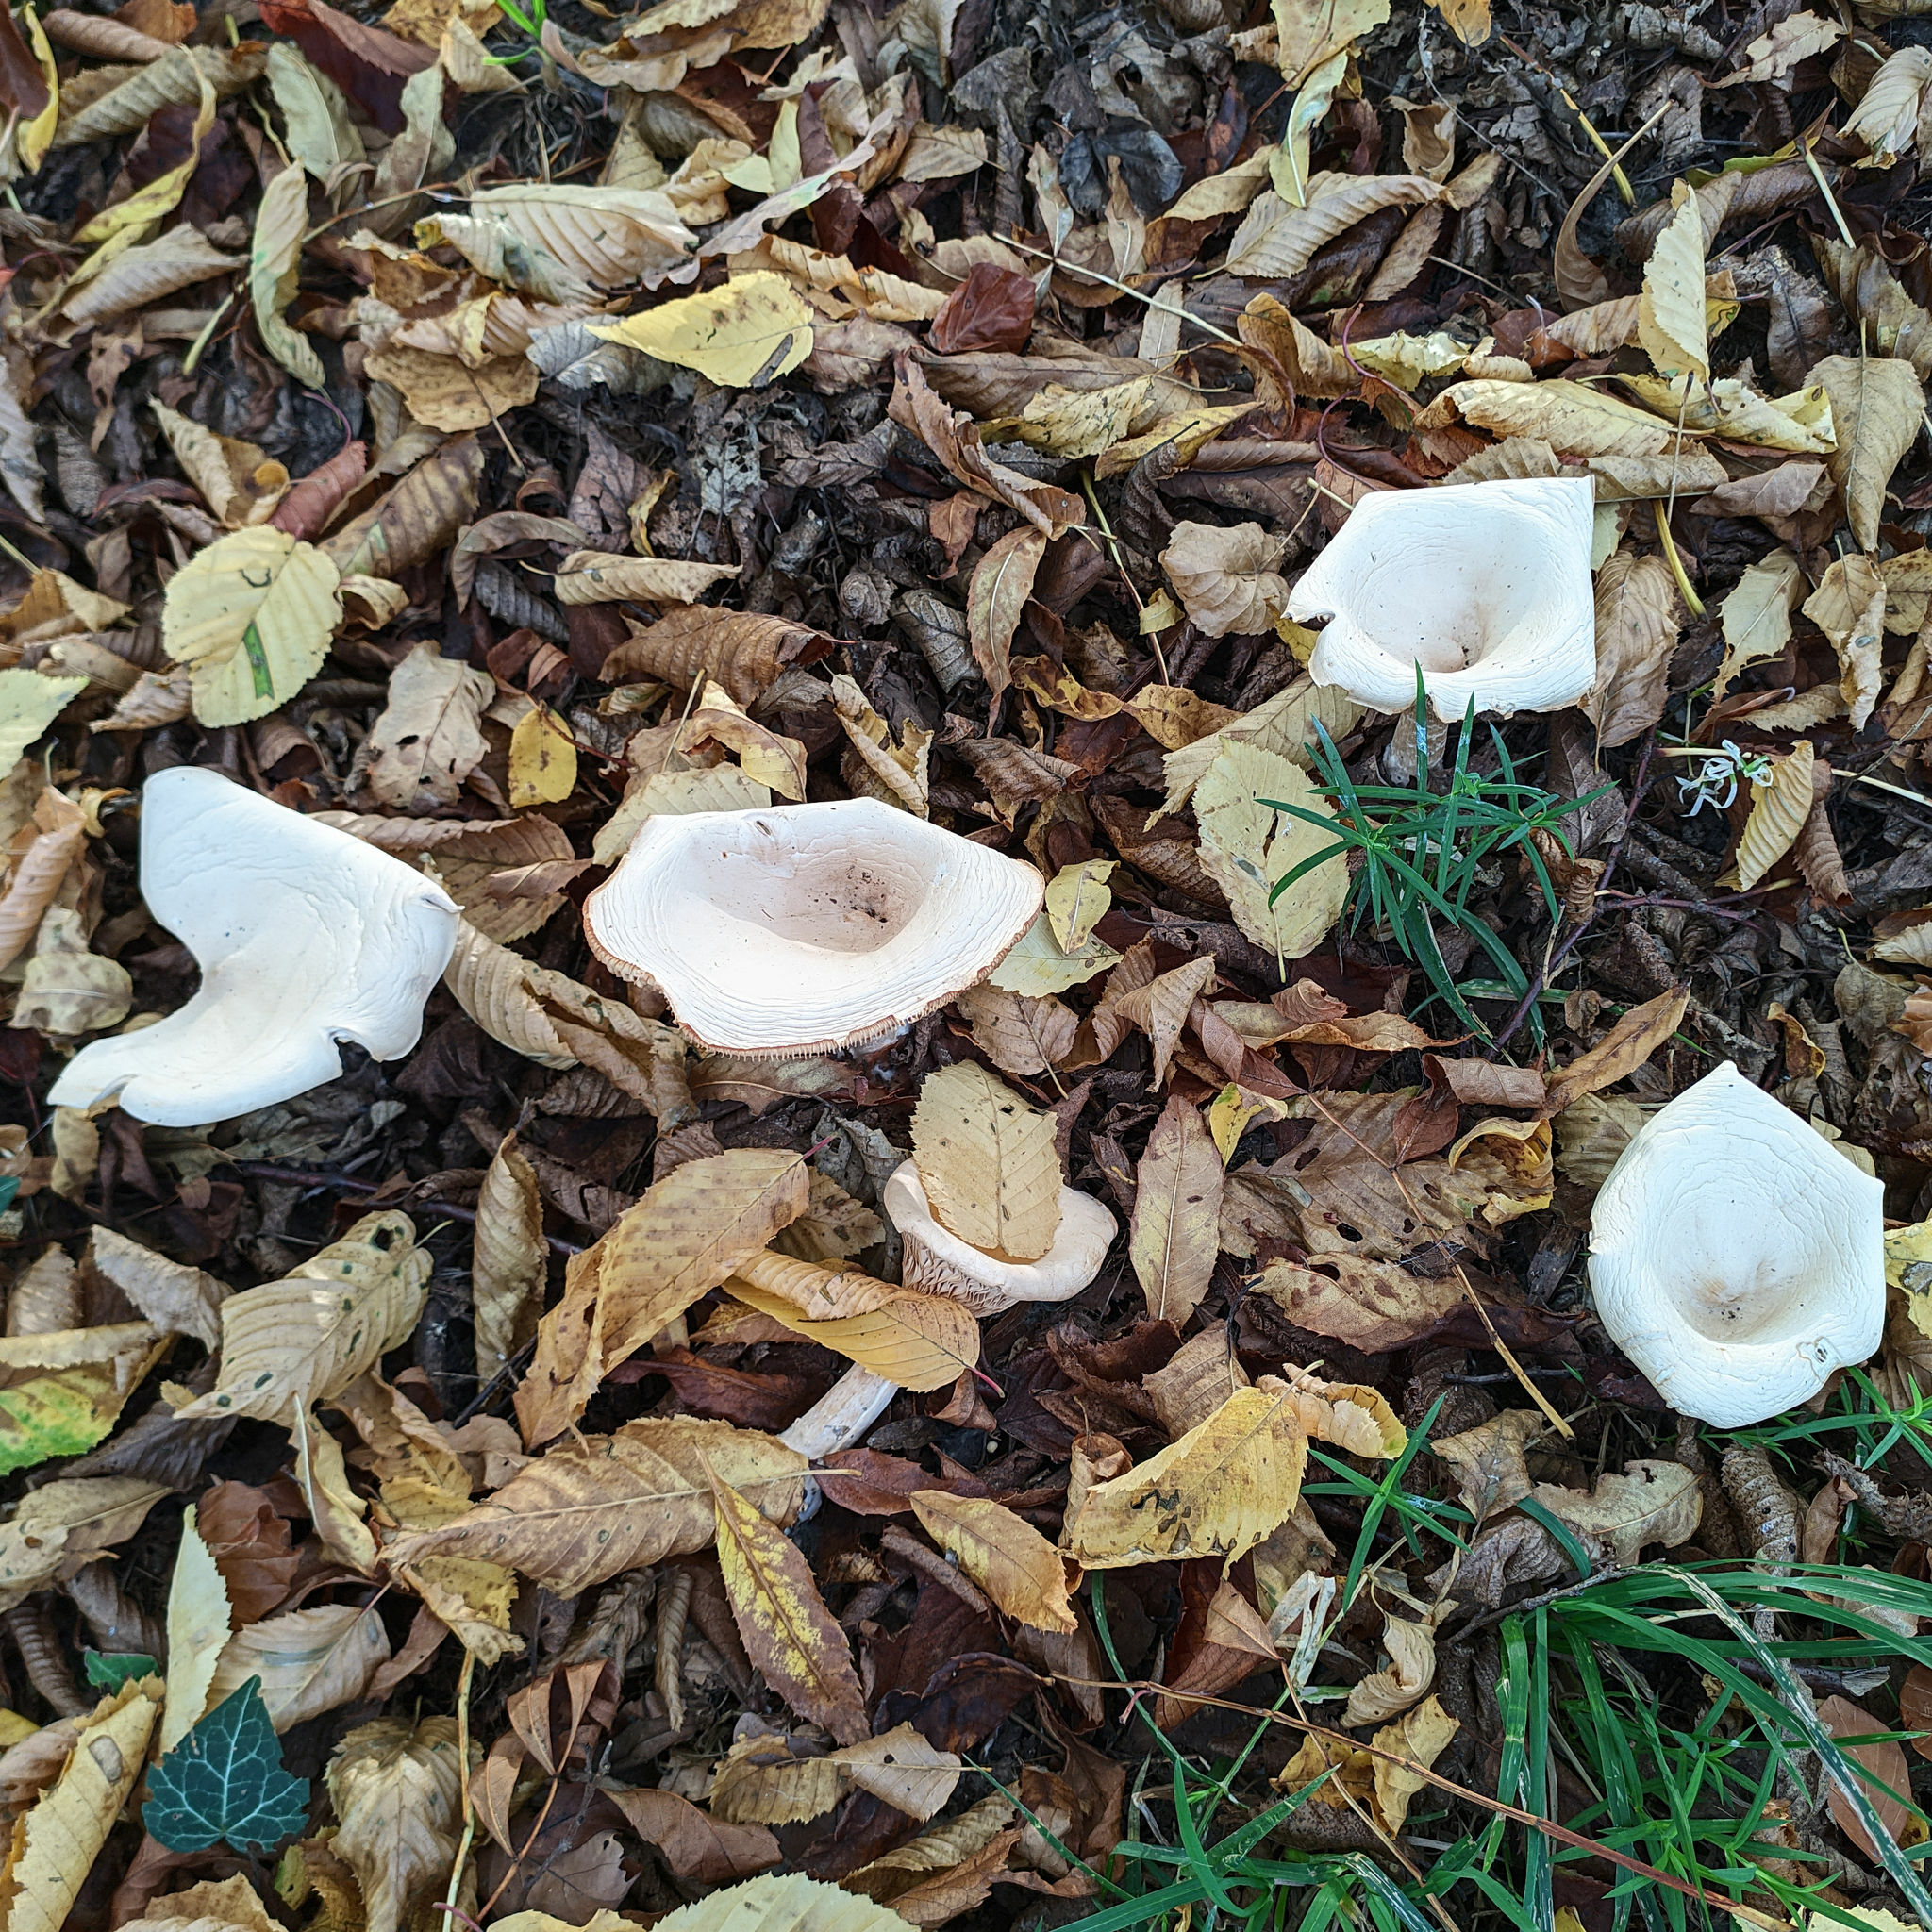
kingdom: Fungi
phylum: Basidiomycota
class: Agaricomycetes
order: Agaricales
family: Tricholomataceae
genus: Infundibulicybe
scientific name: Infundibulicybe geotropa
